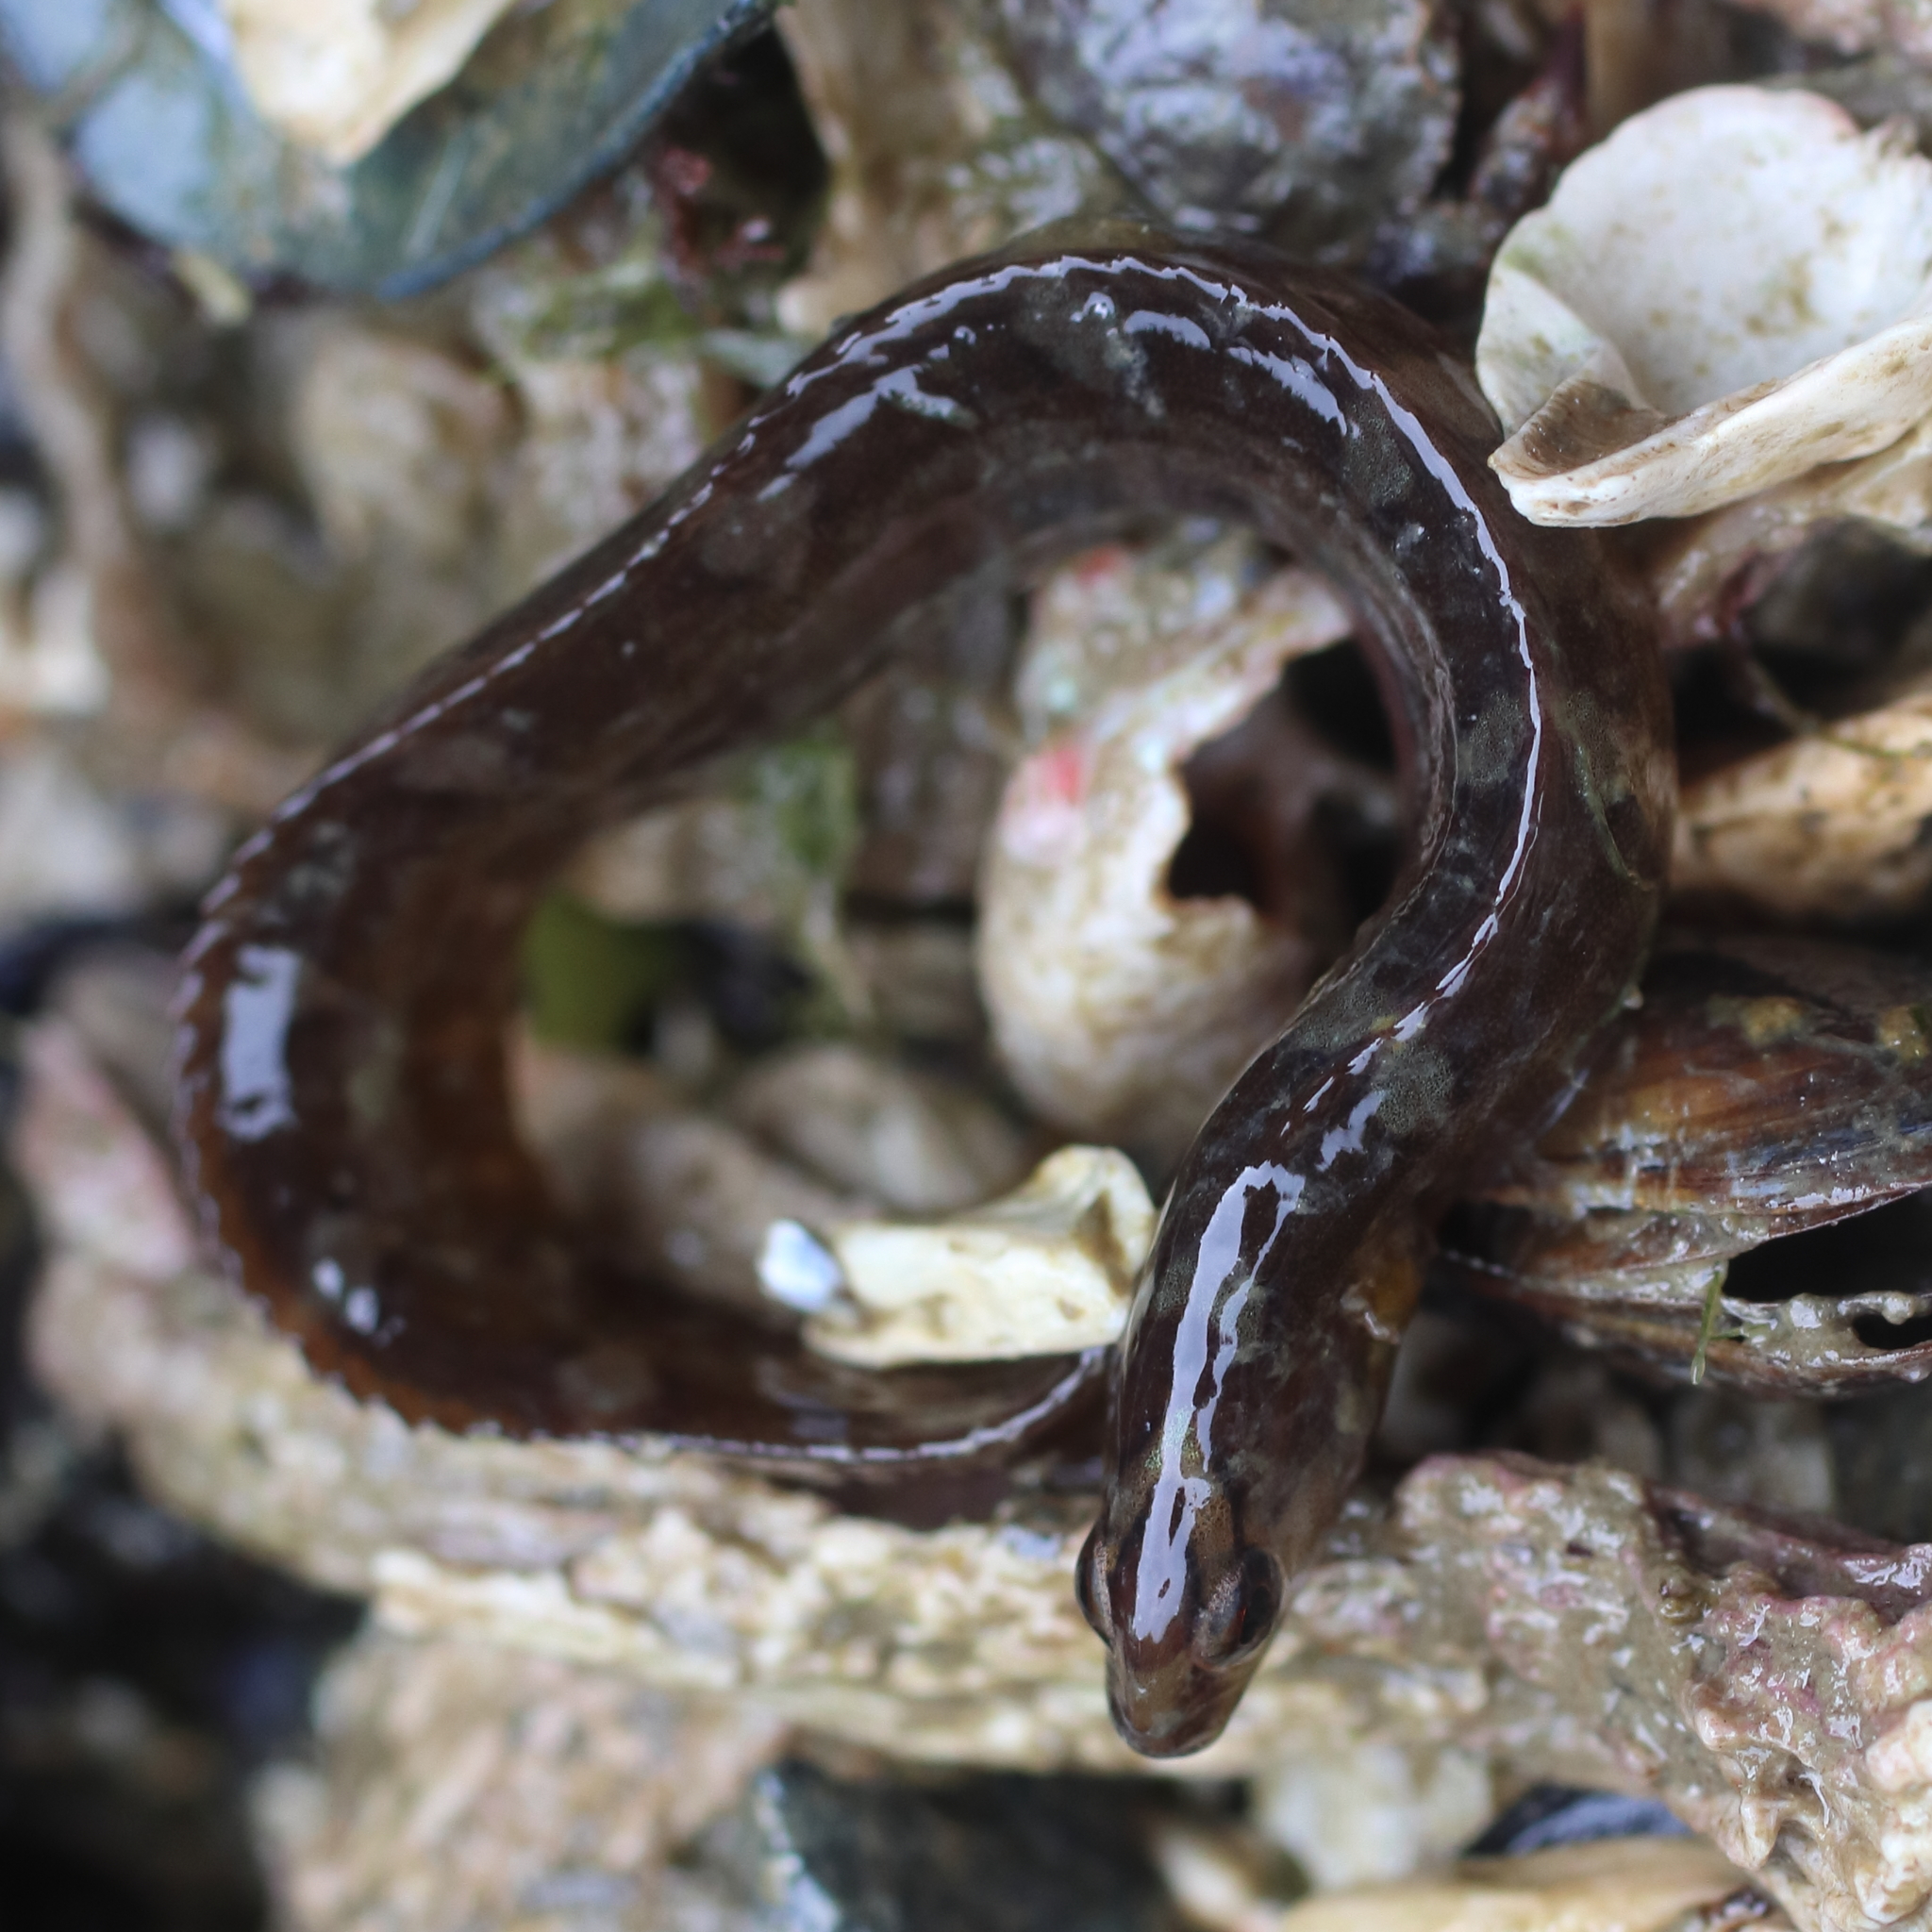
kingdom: Animalia
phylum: Chordata
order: Perciformes
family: Pholidae
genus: Pholis
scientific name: Pholis laeta
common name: Crescent gunnel
